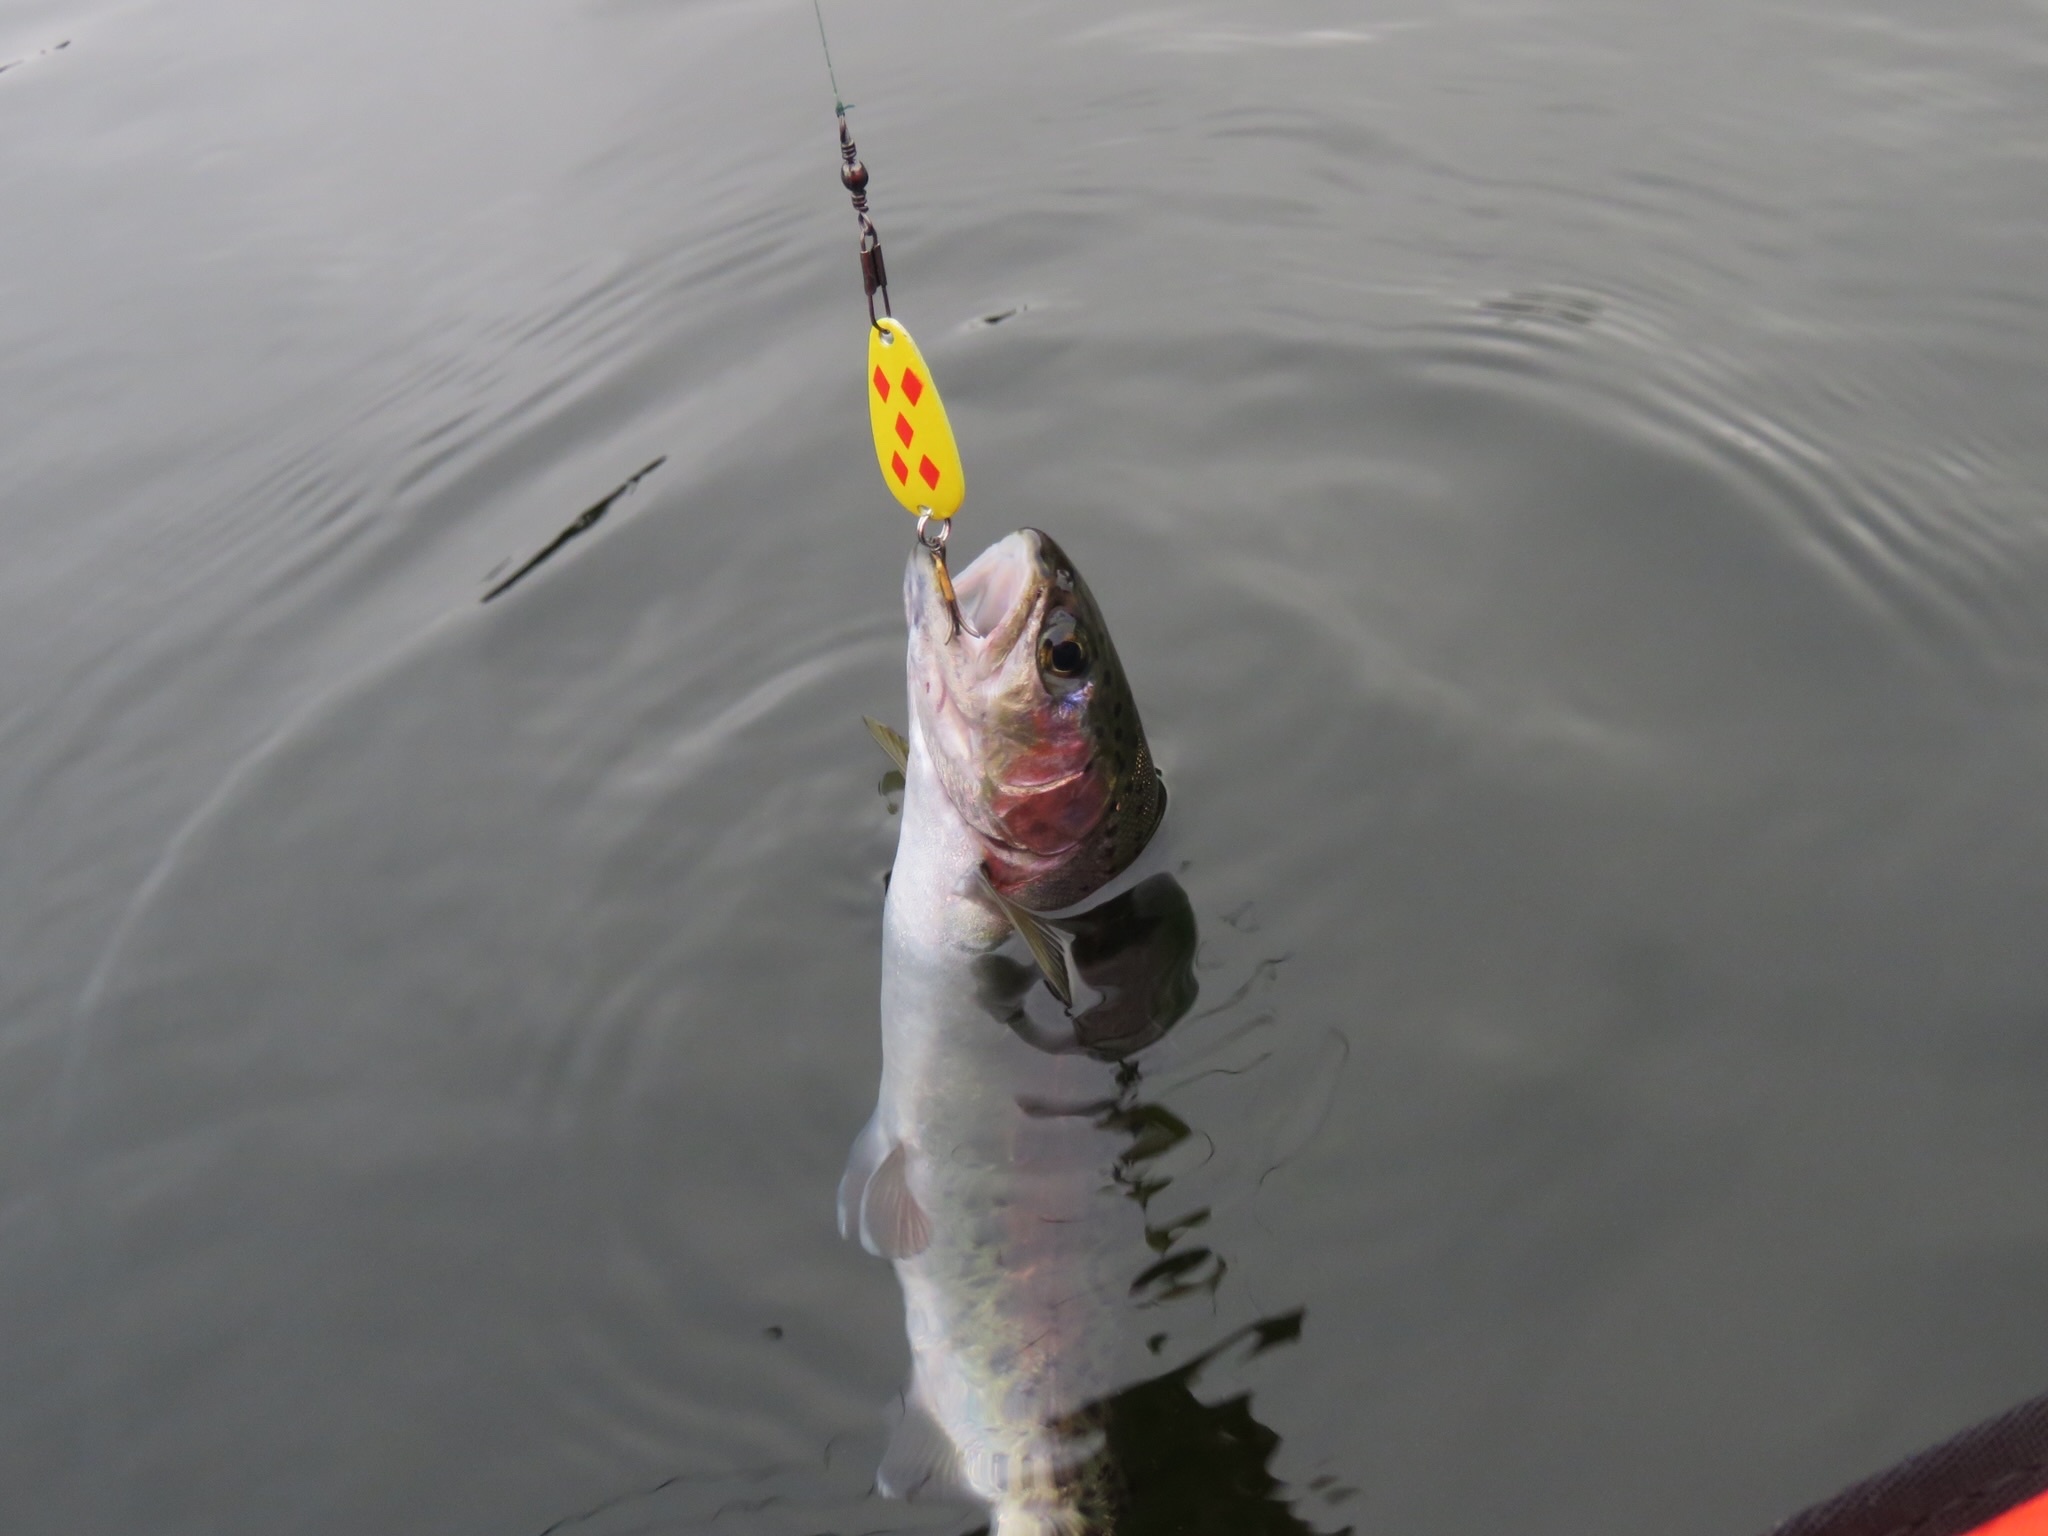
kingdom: Animalia
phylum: Chordata
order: Salmoniformes
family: Salmonidae
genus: Oncorhynchus
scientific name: Oncorhynchus mykiss
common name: Rainbow trout
